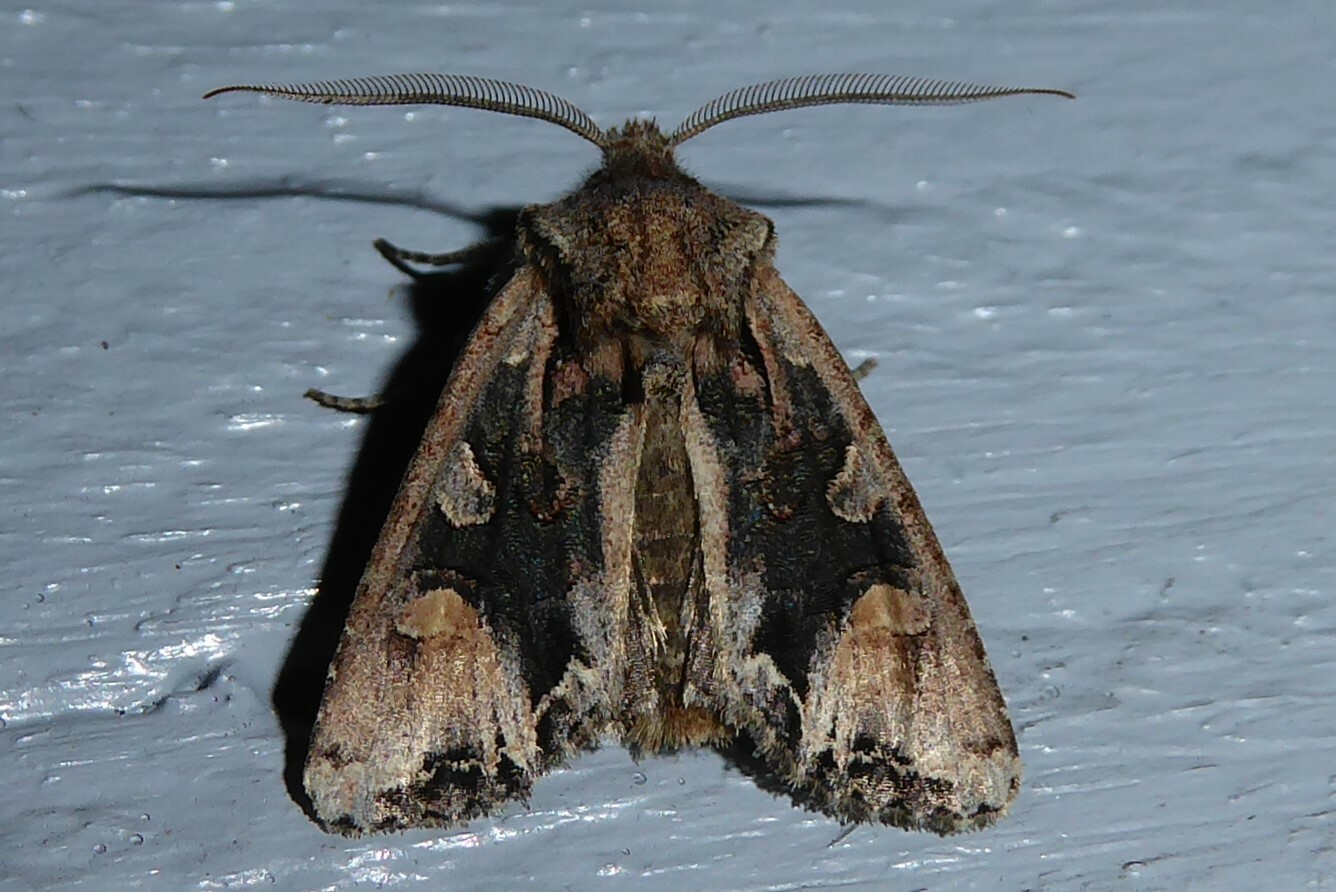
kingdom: Animalia
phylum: Arthropoda
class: Insecta
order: Lepidoptera
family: Noctuidae
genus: Ichneutica
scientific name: Ichneutica
